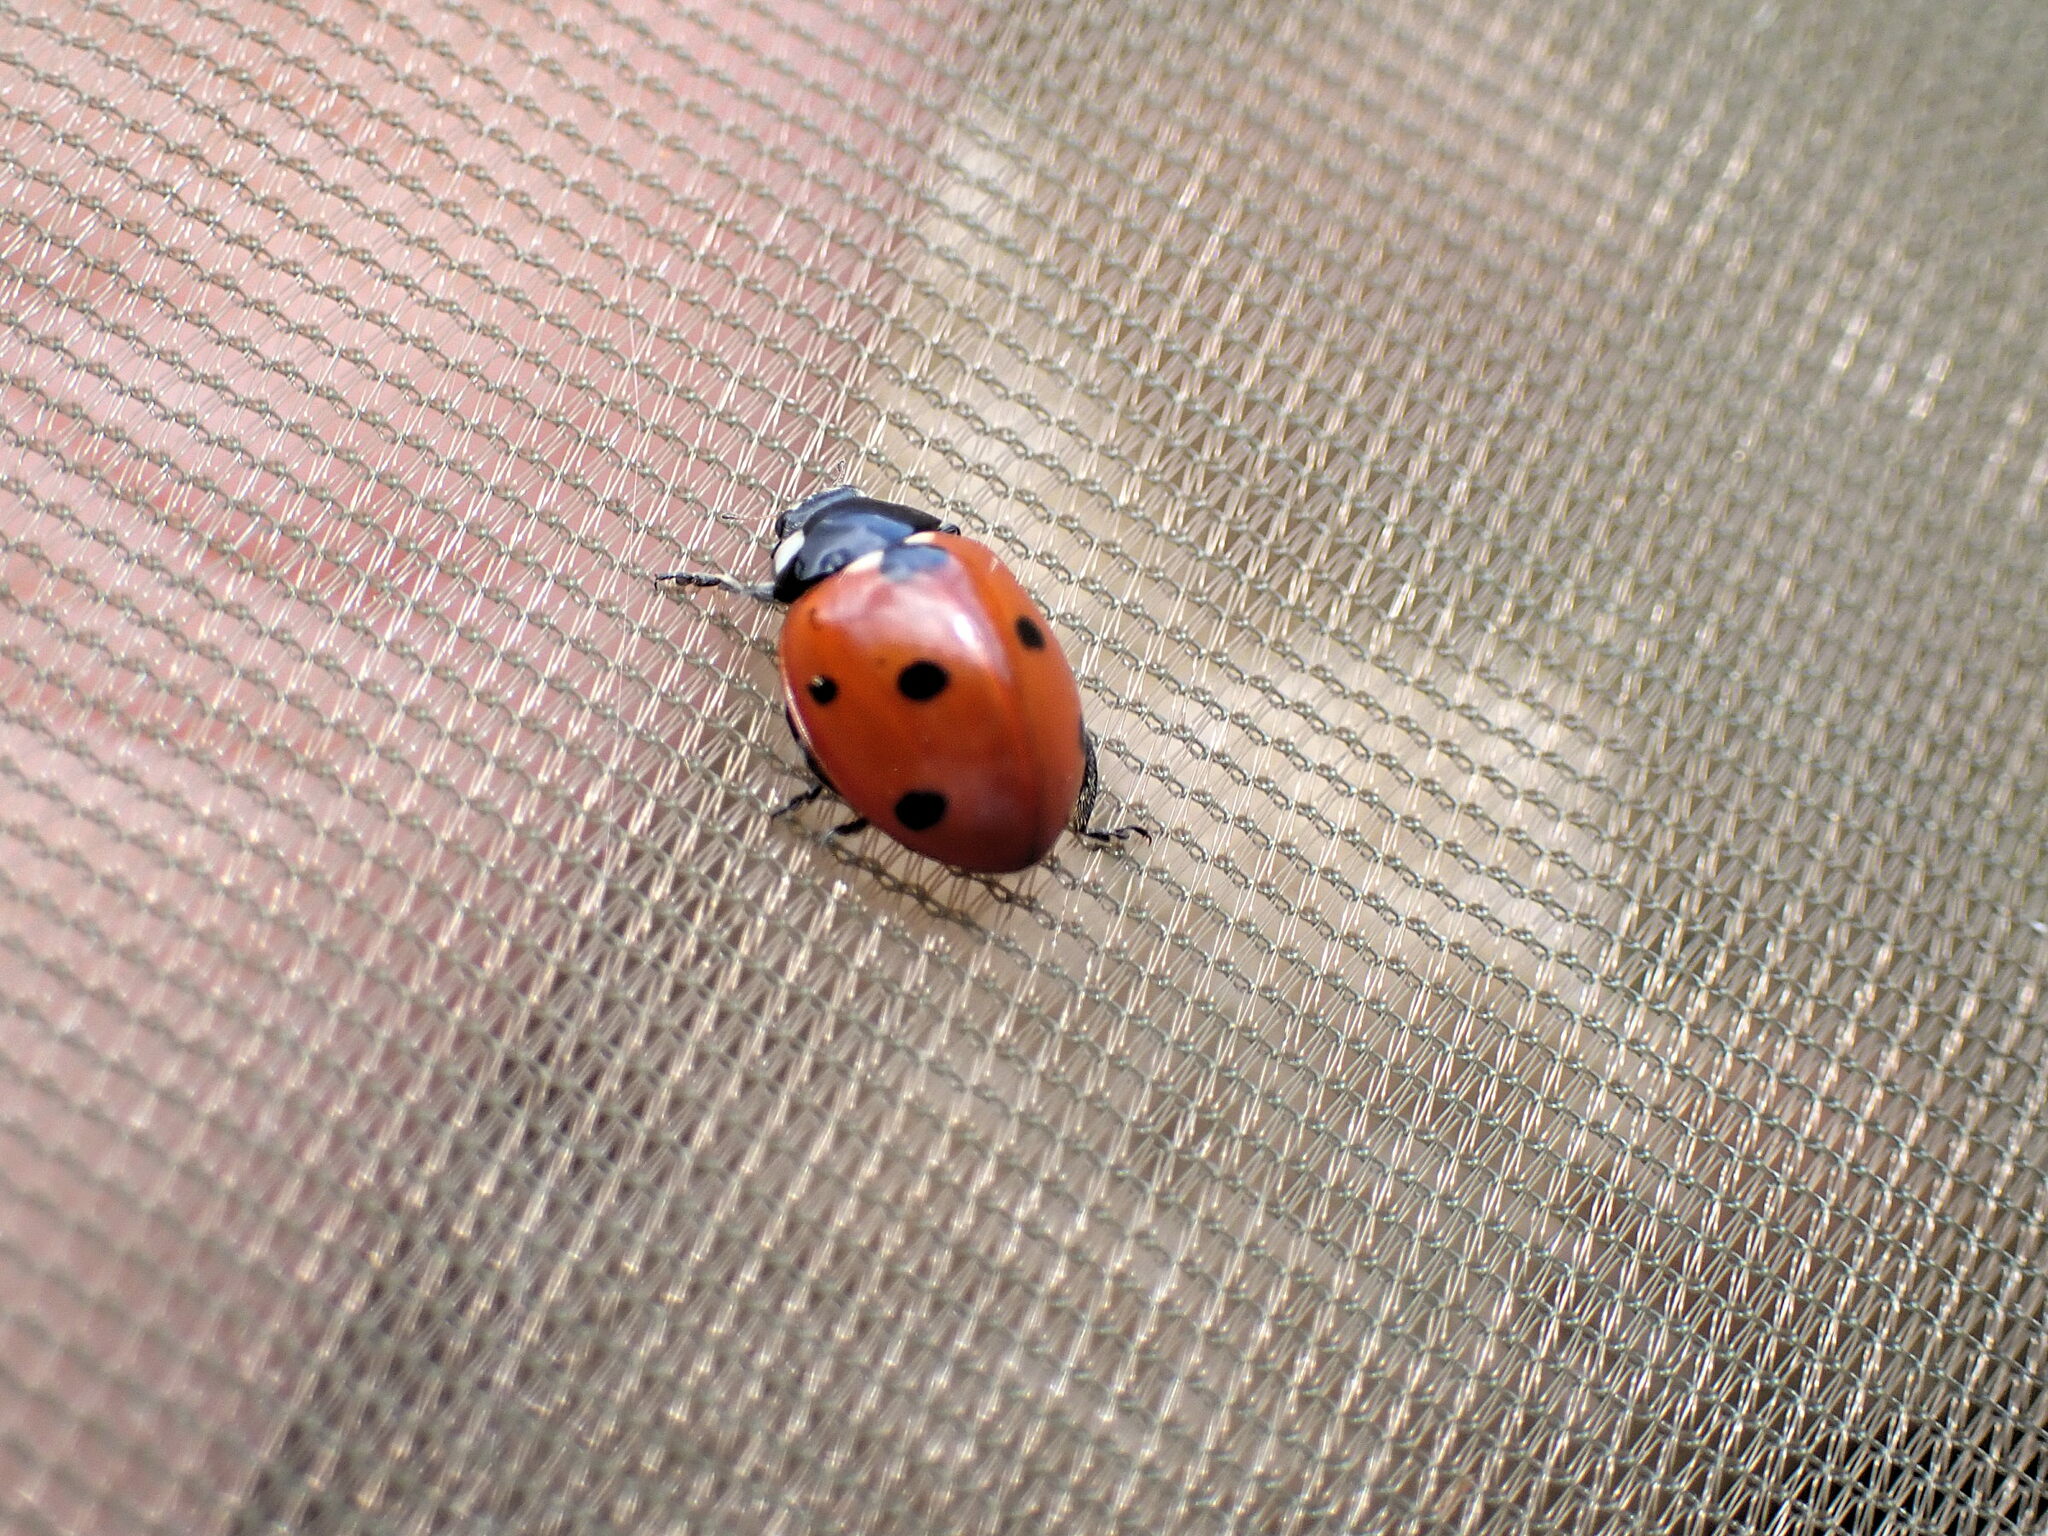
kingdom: Animalia
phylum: Arthropoda
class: Insecta
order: Coleoptera
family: Coccinellidae
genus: Coccinella
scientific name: Coccinella septempunctata
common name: Sevenspotted lady beetle
